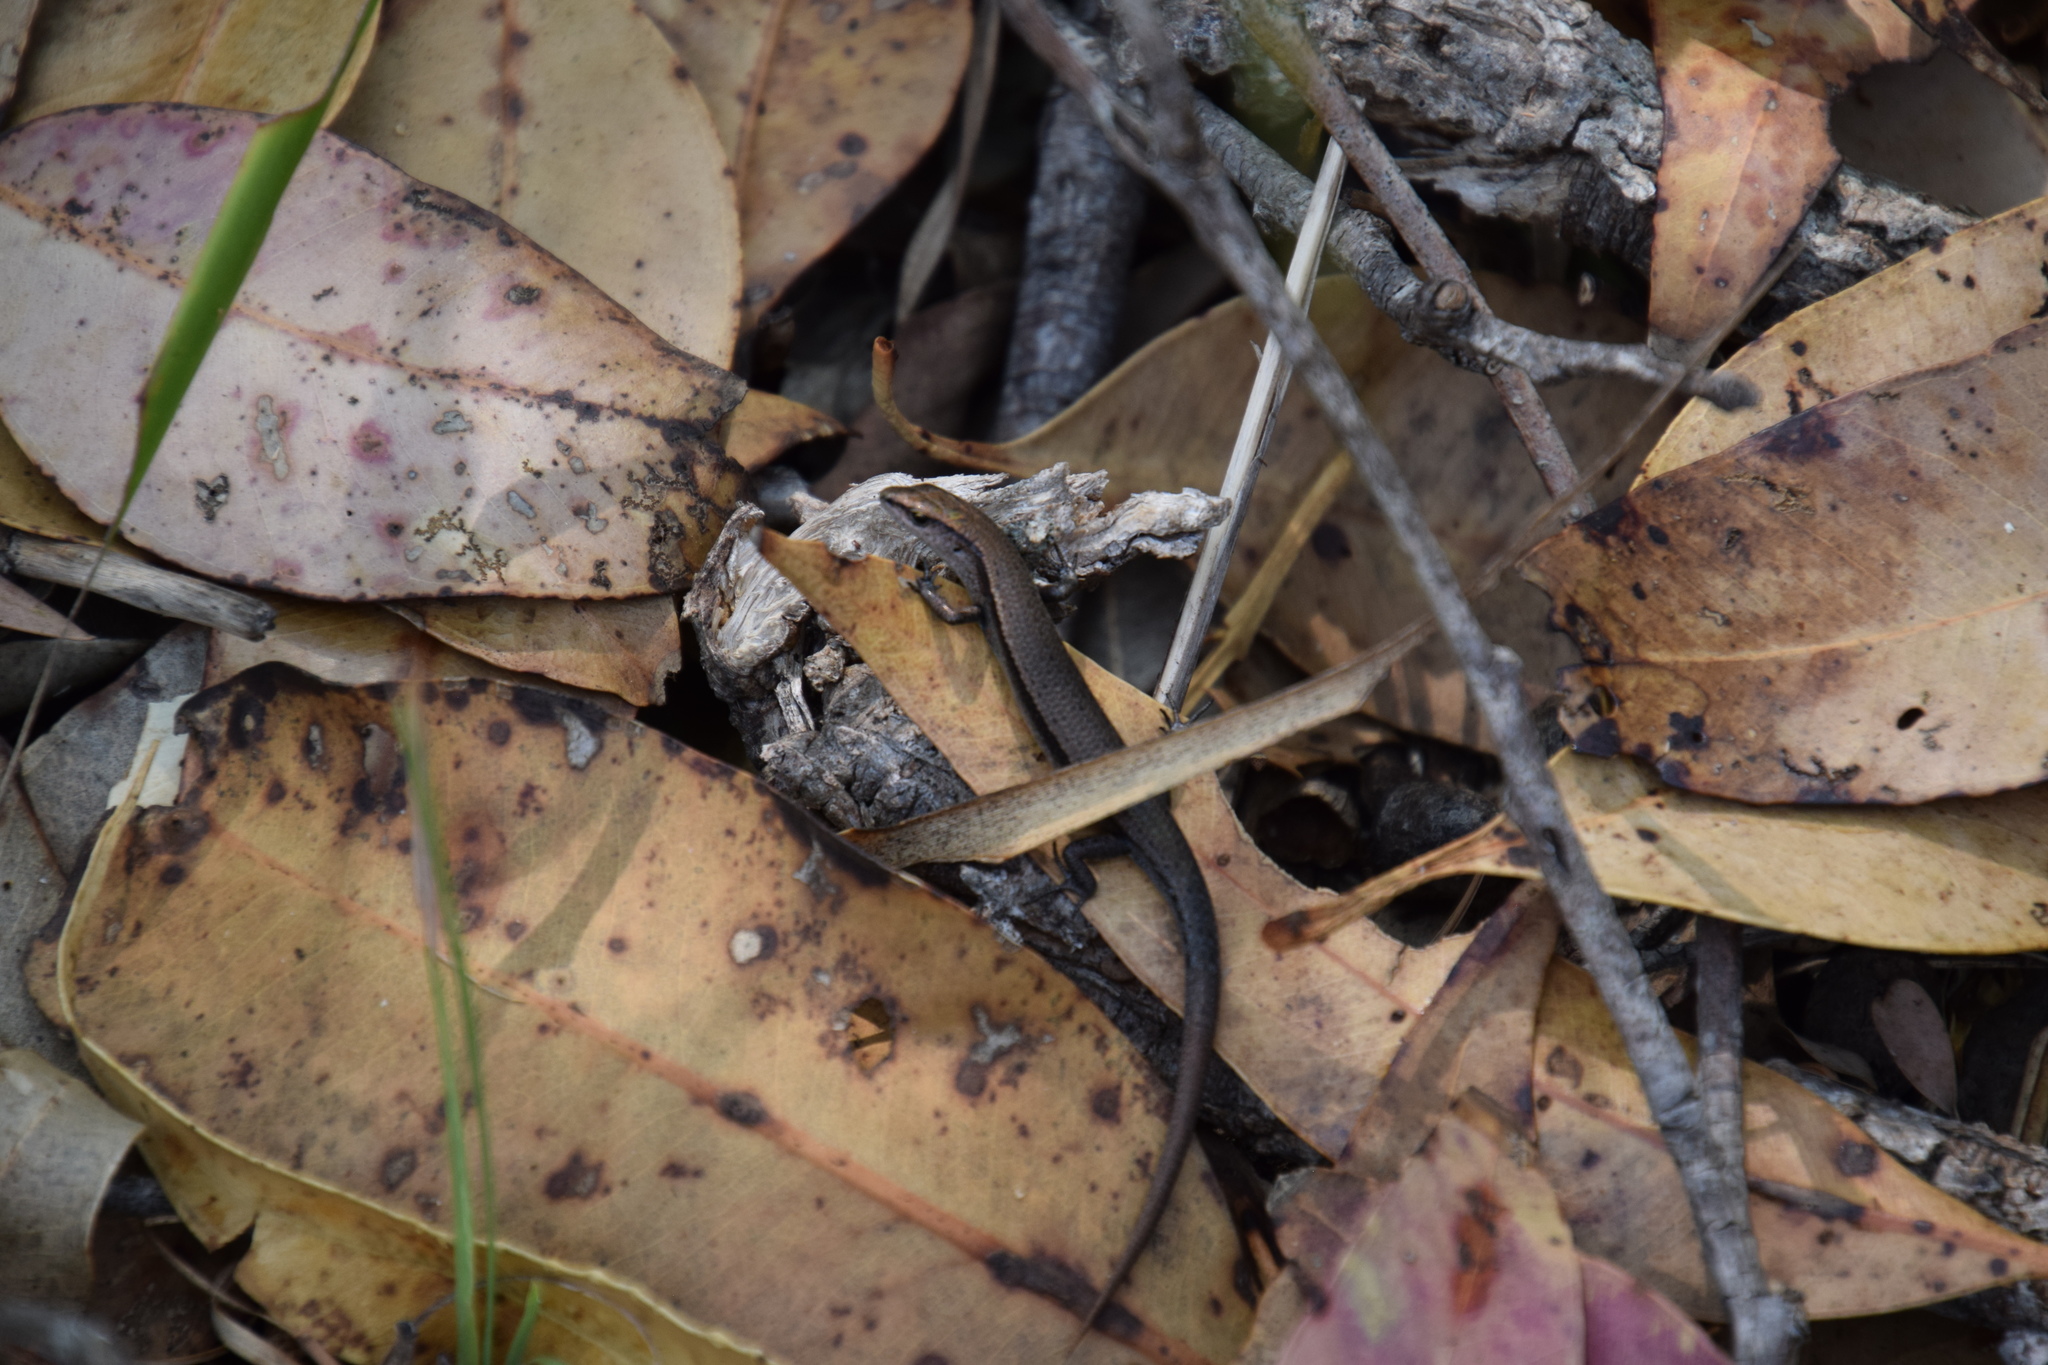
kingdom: Animalia
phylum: Chordata
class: Squamata
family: Scincidae
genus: Lampropholis
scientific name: Lampropholis delicata
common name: Plague skink
